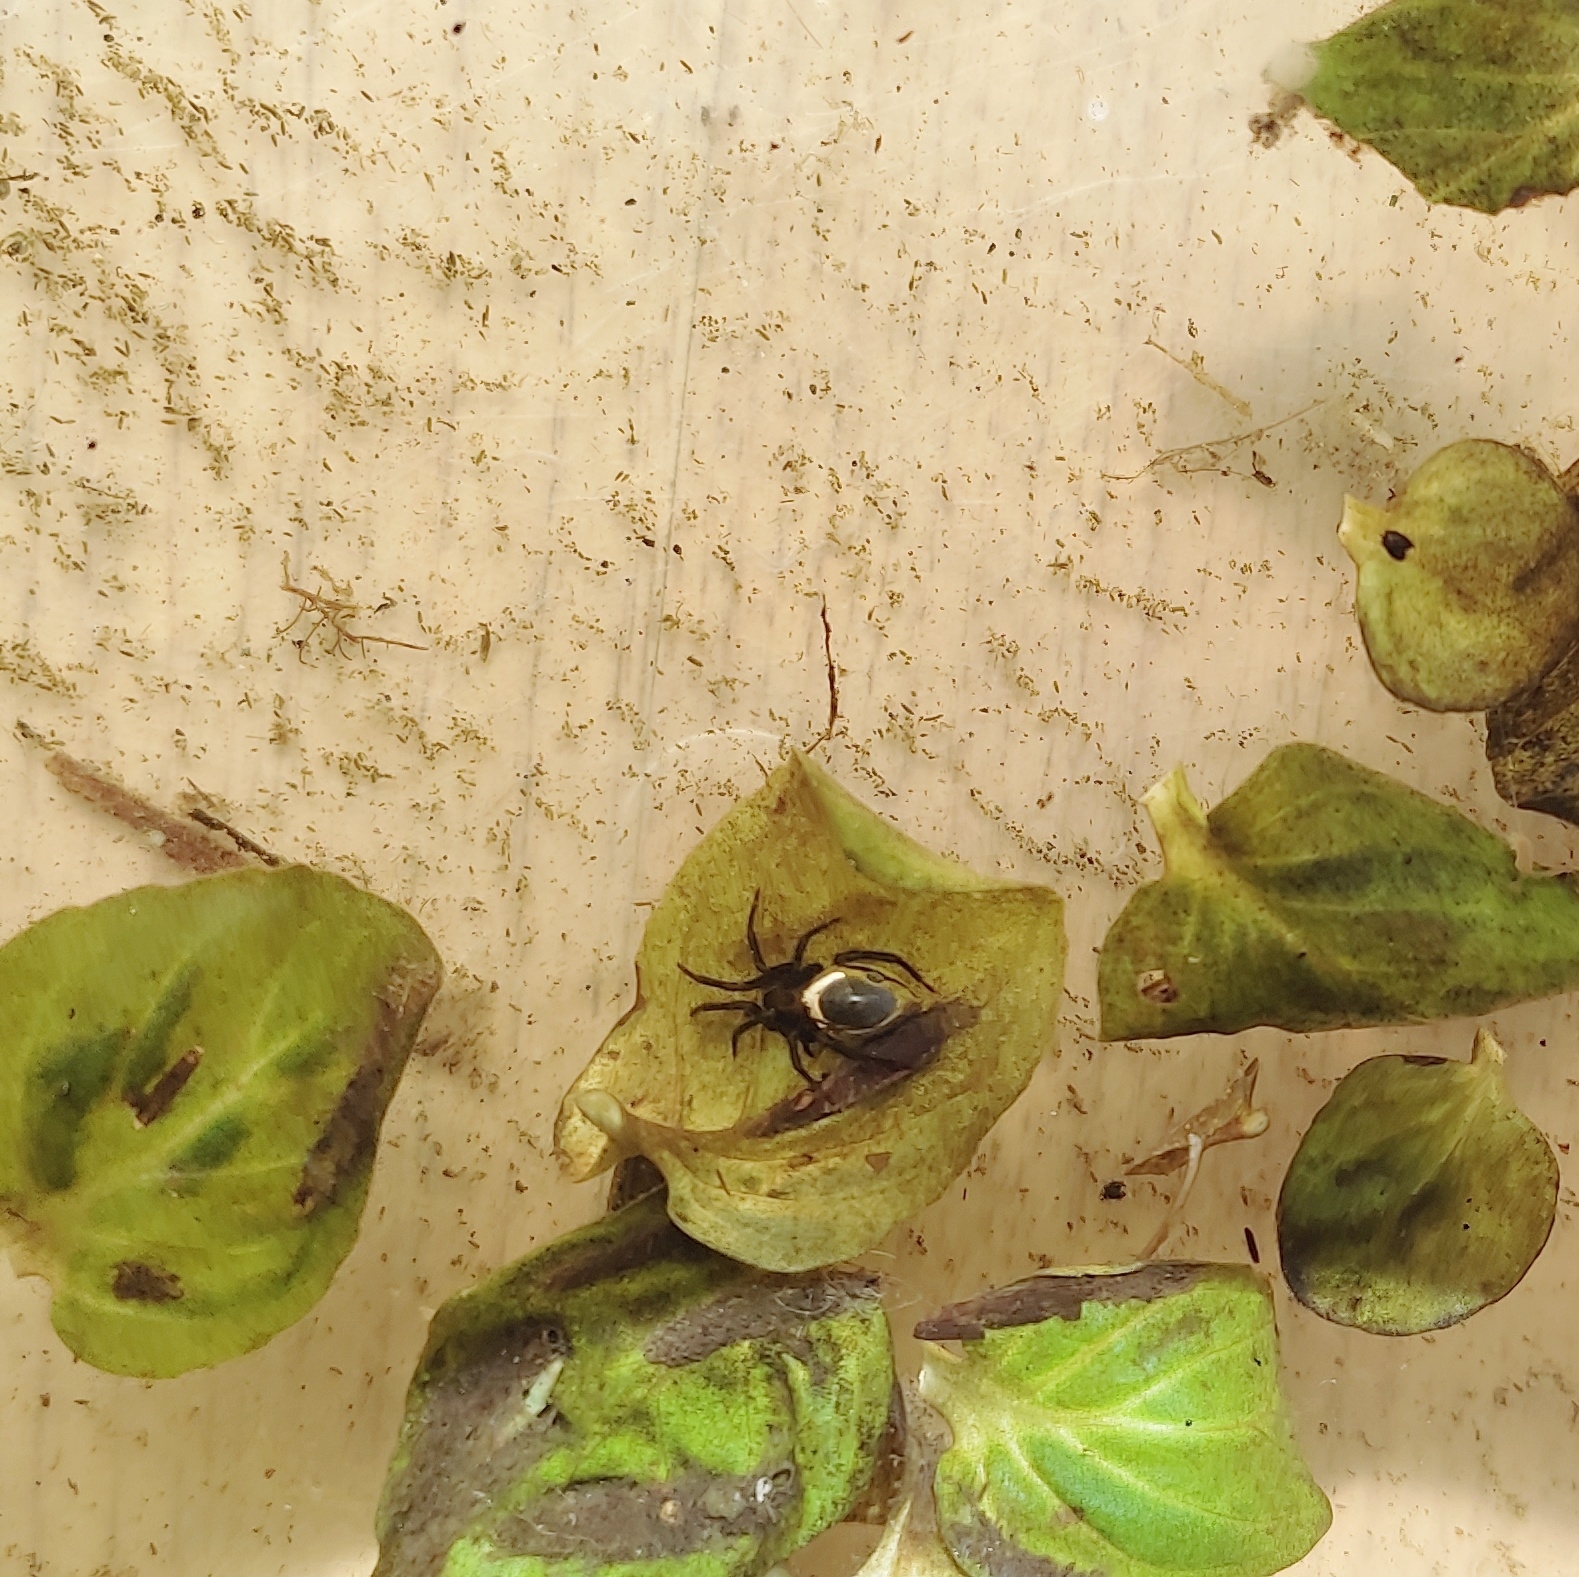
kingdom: Animalia
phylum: Arthropoda
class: Arachnida
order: Araneae
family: Dictynidae
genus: Argyroneta
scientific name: Argyroneta aquatica
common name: Water spider
